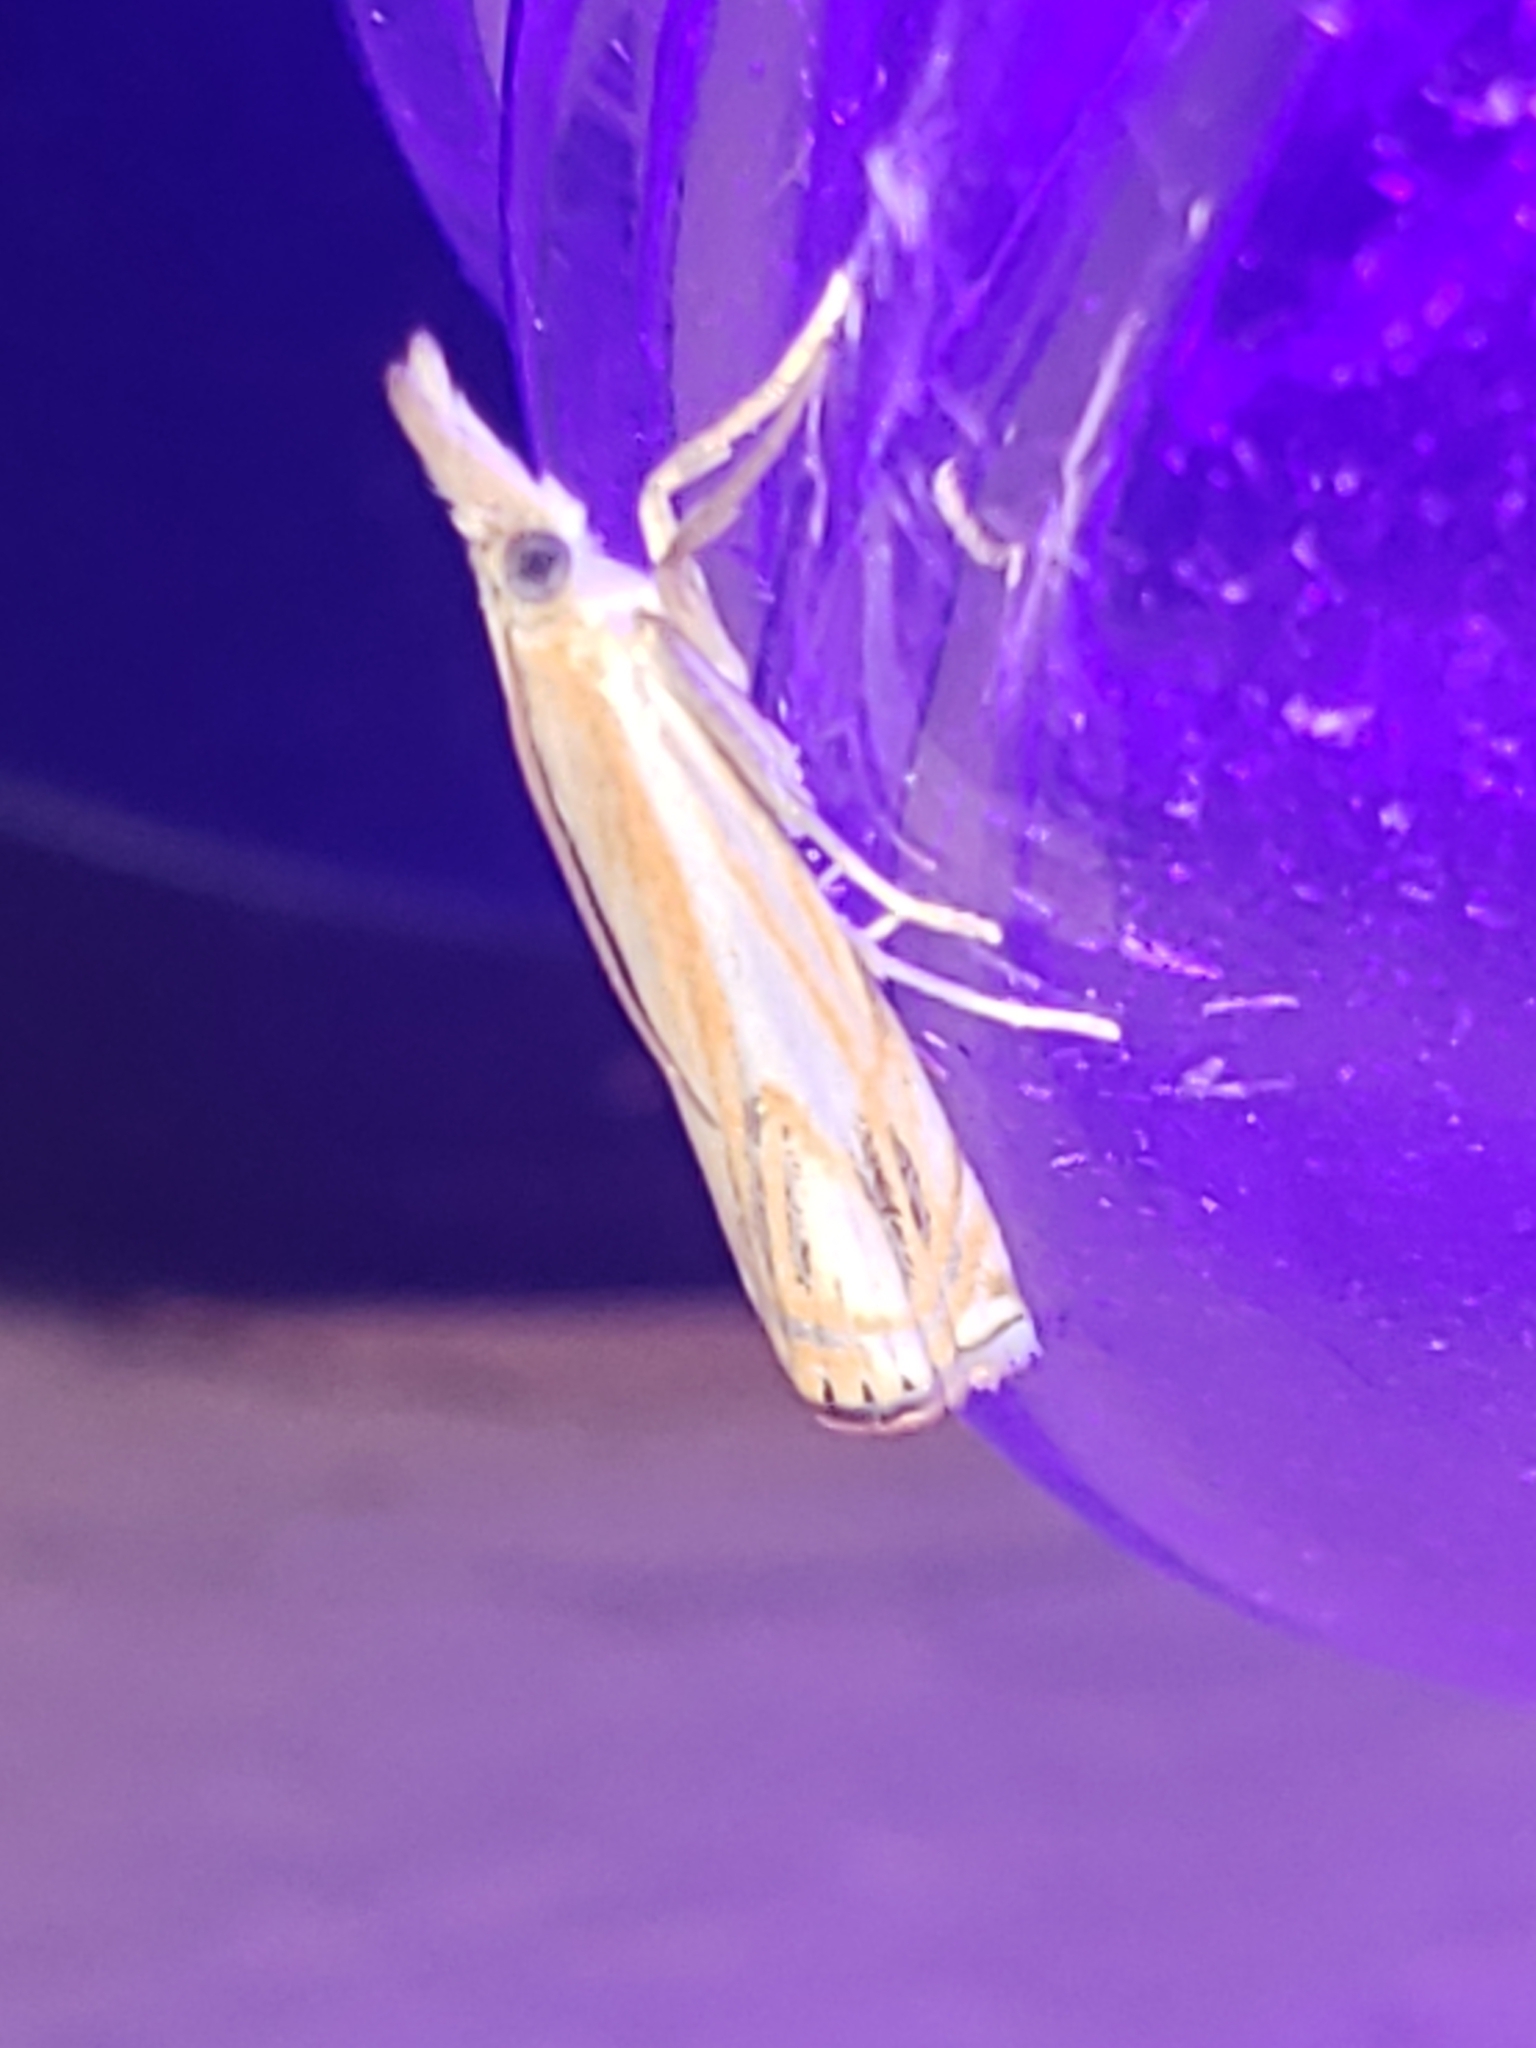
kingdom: Animalia
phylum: Arthropoda
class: Insecta
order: Lepidoptera
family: Crambidae
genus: Crambus
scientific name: Crambus agitatellus
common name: Double-banded grass-veneer
